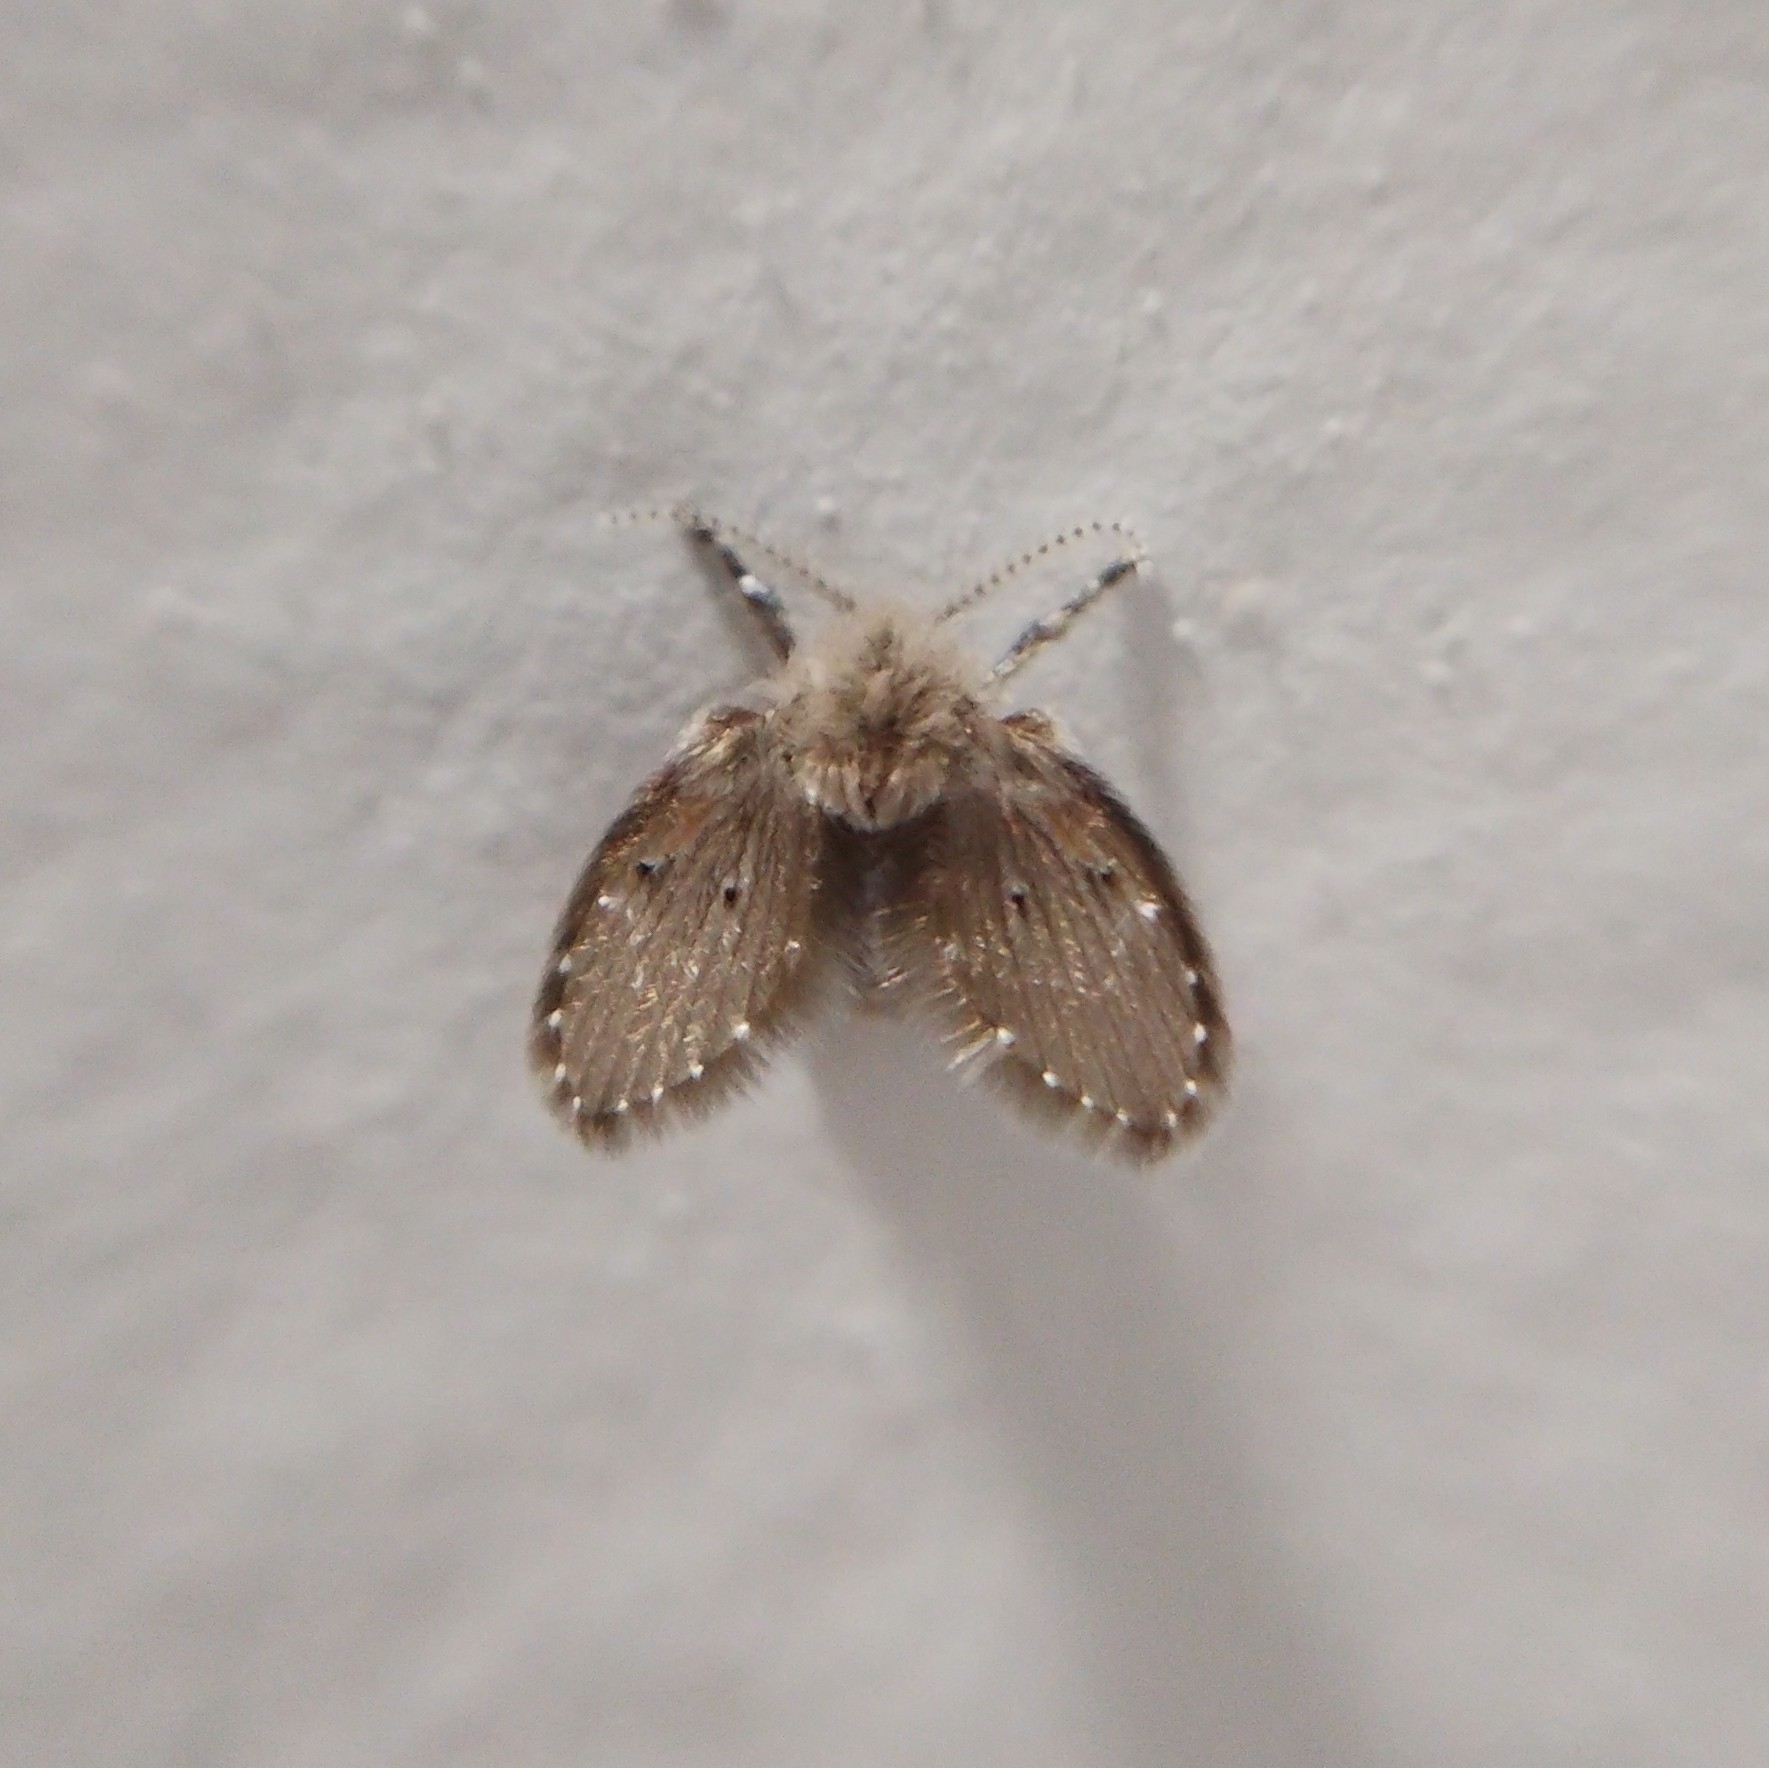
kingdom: Animalia
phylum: Arthropoda
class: Insecta
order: Diptera
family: Psychodidae
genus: Clogmia
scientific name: Clogmia albipunctatus
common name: White-spotted moth fly
